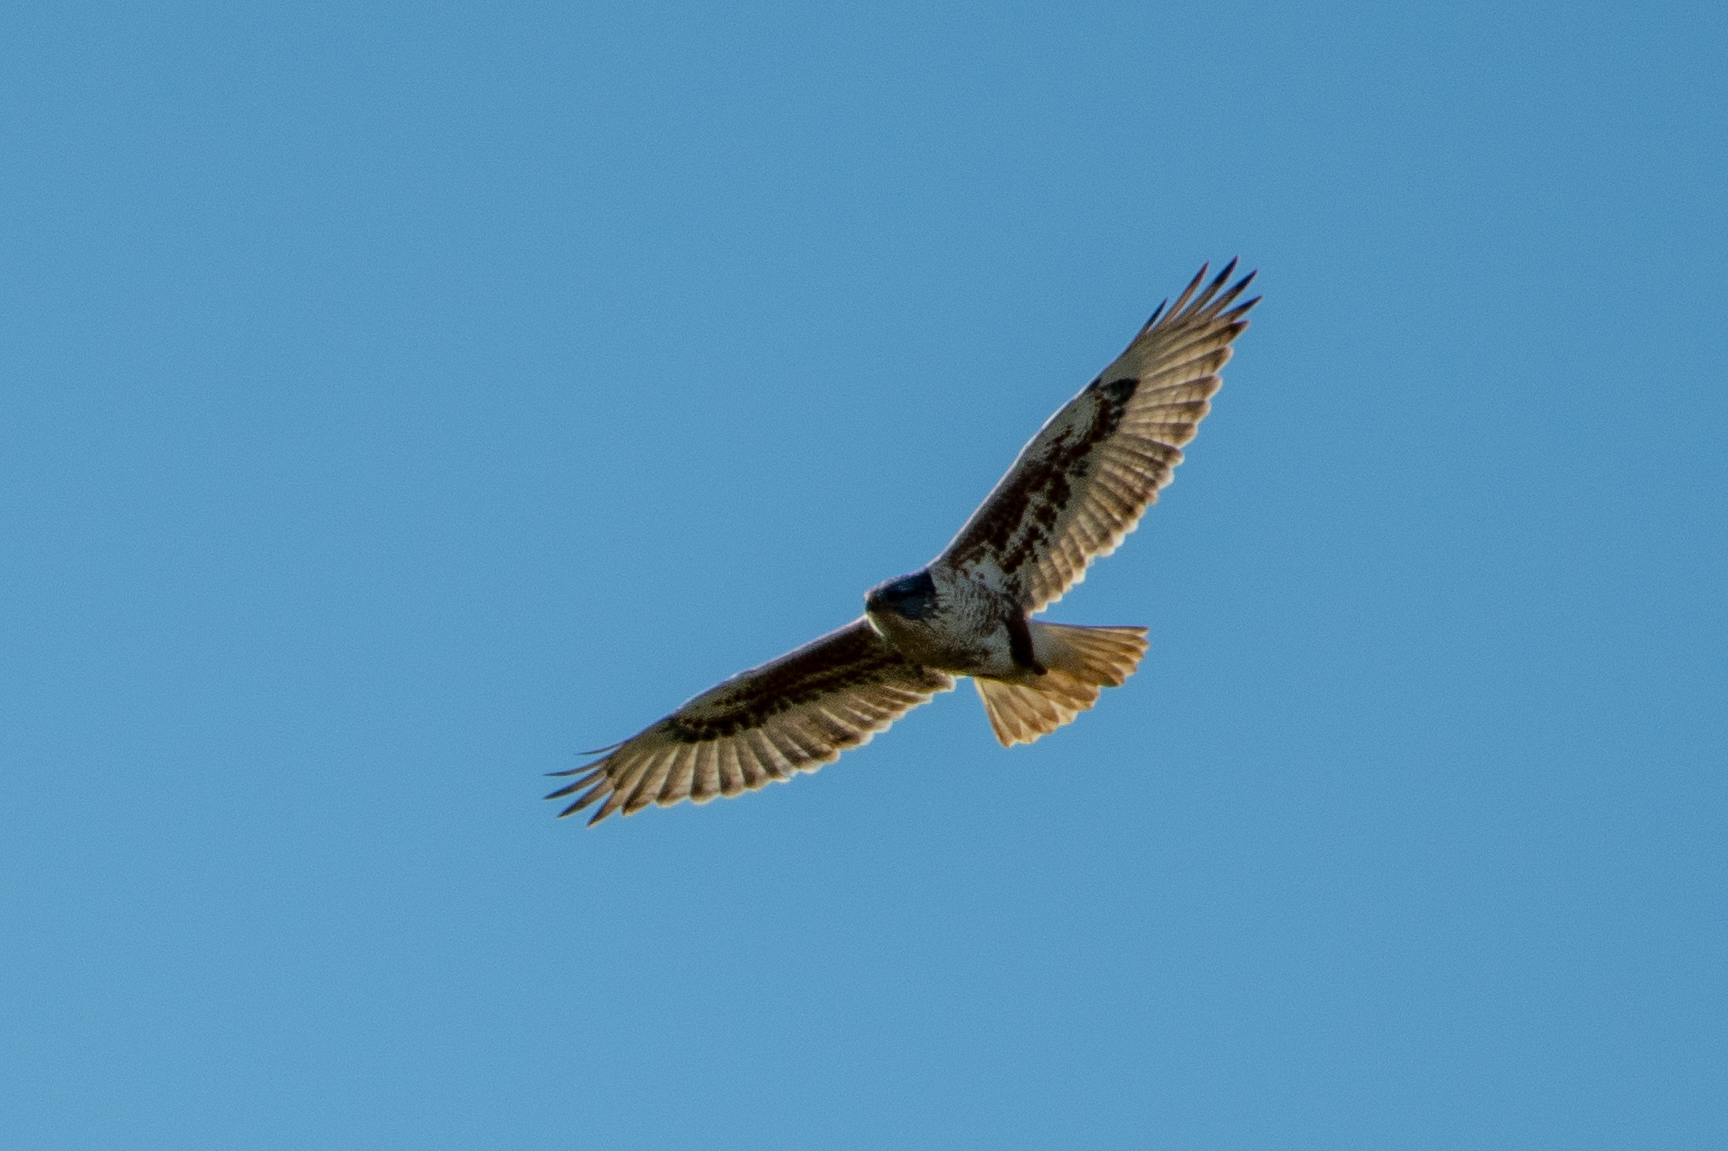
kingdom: Animalia
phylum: Chordata
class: Aves
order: Accipitriformes
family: Accipitridae
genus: Buteo
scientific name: Buteo regalis
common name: Ferruginous hawk
